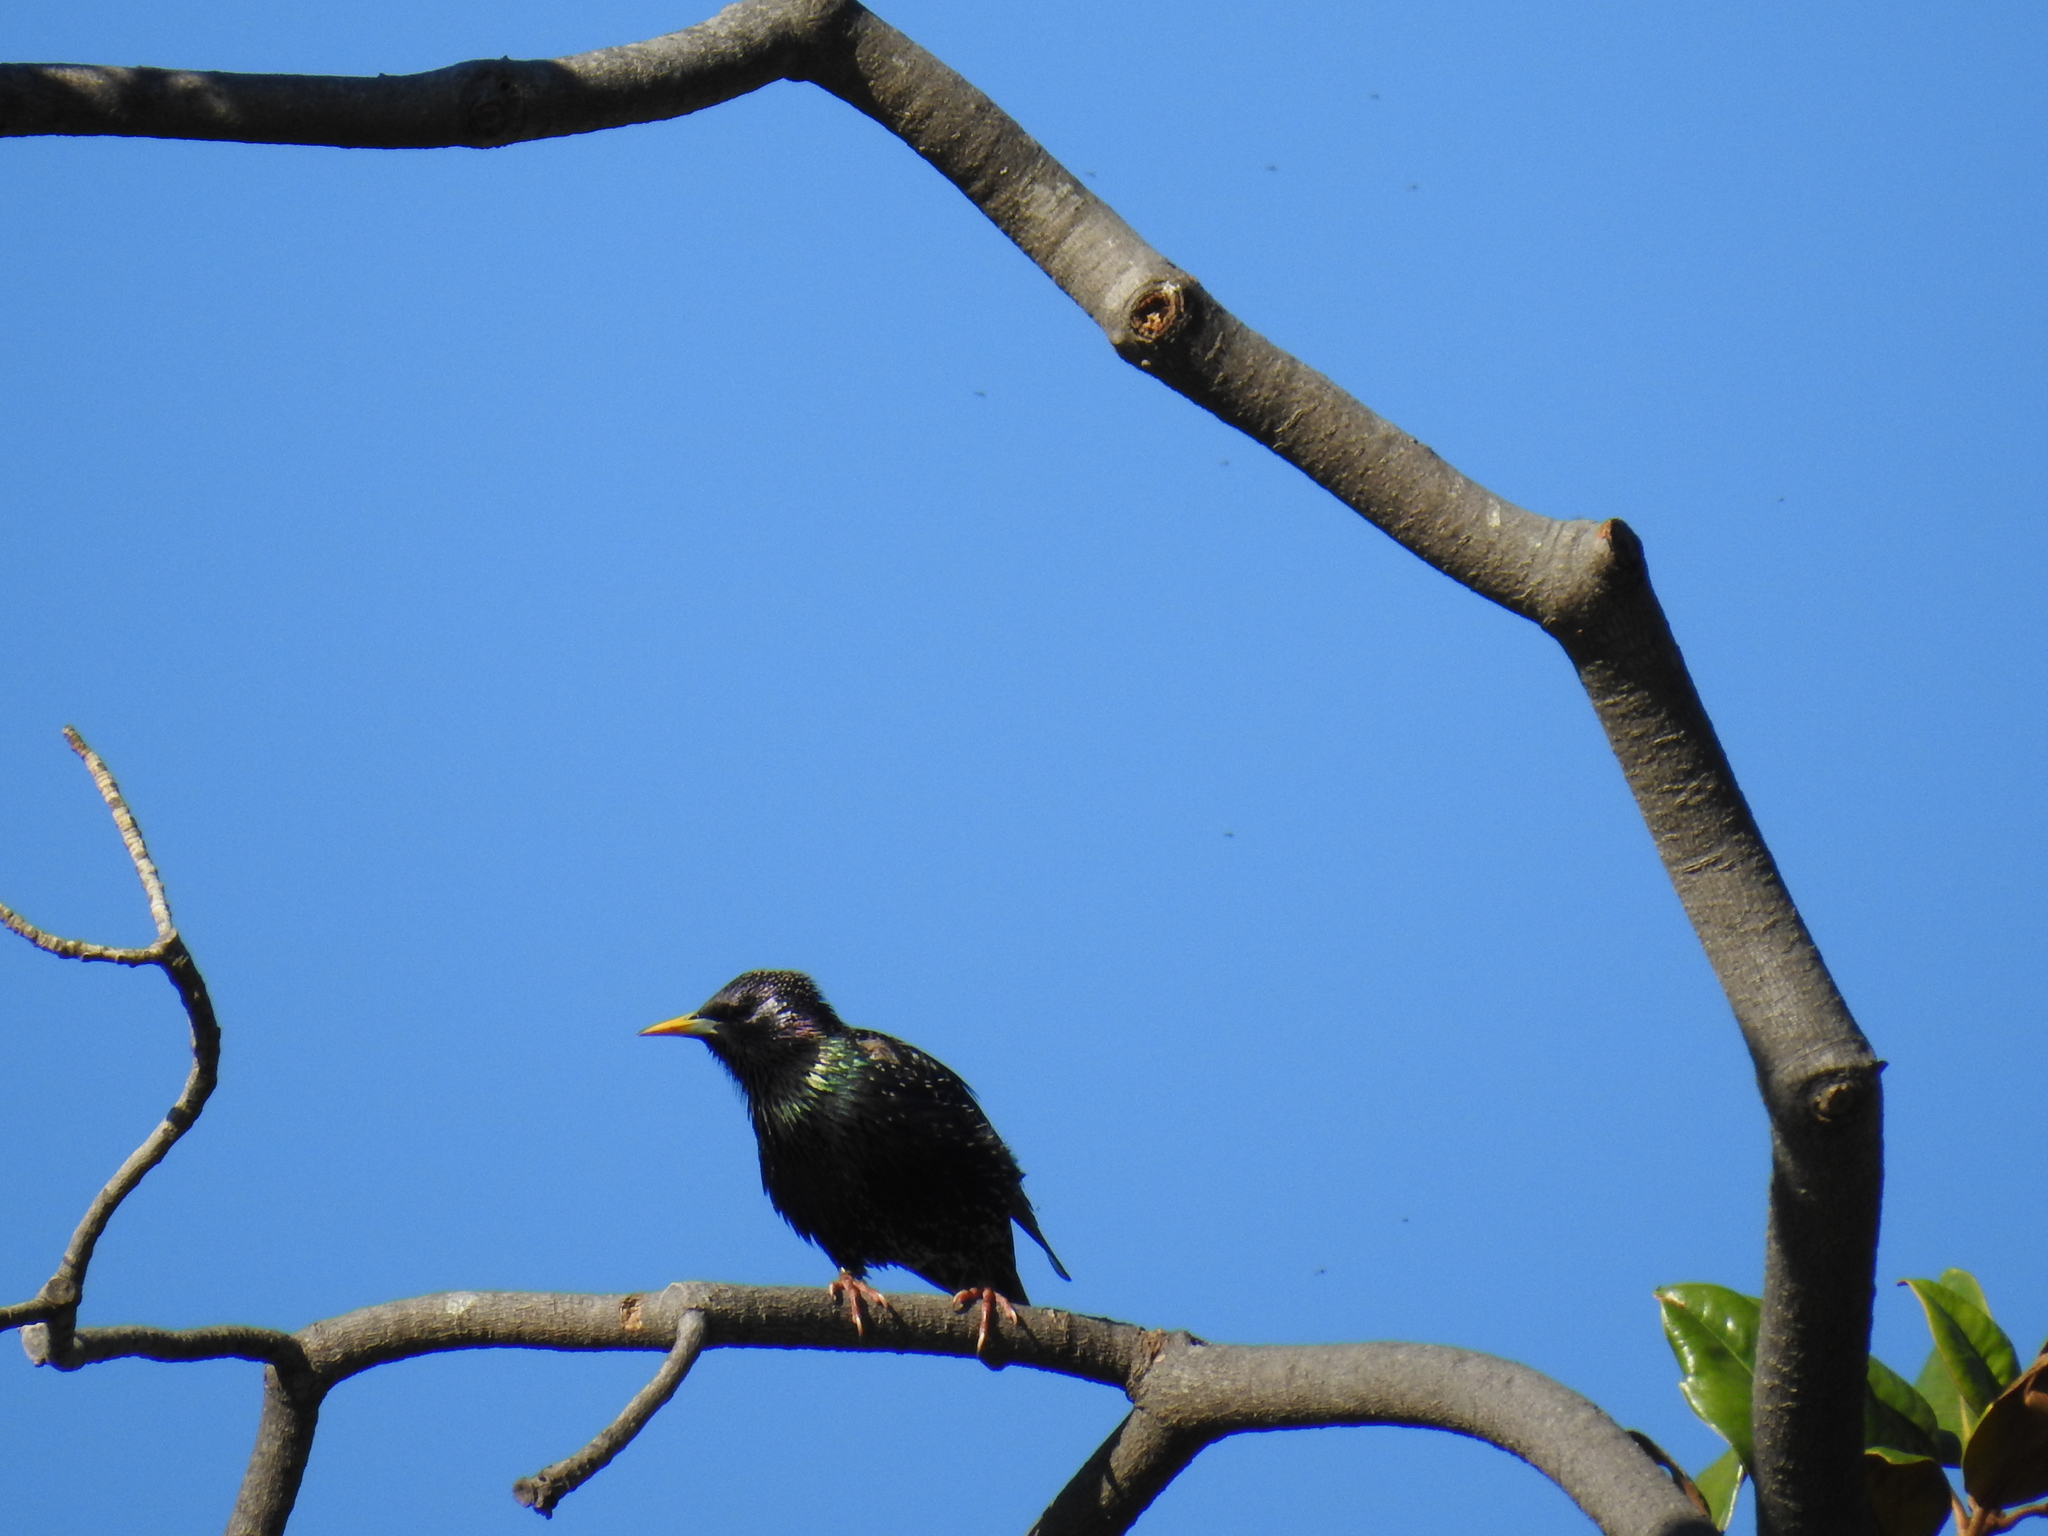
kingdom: Animalia
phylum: Chordata
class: Aves
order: Passeriformes
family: Sturnidae
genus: Sturnus
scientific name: Sturnus vulgaris
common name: Common starling
